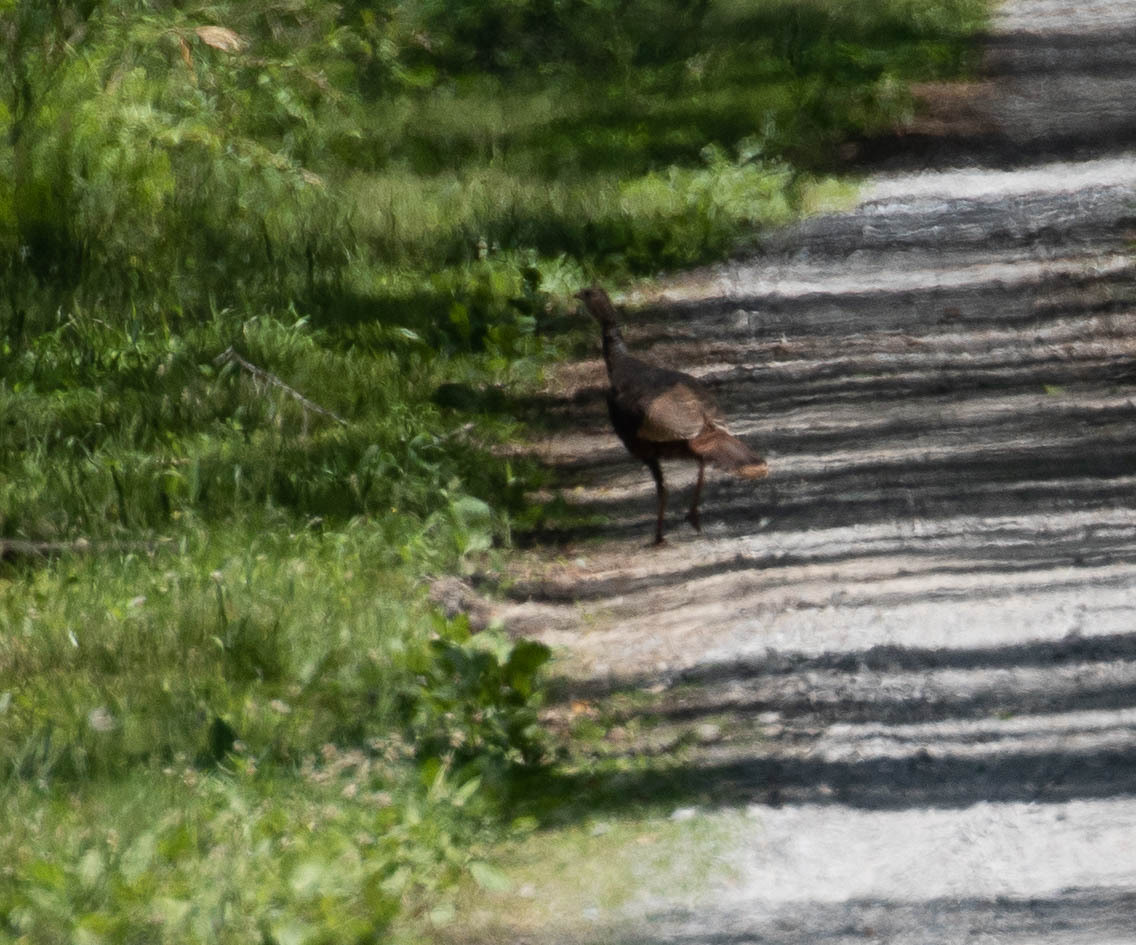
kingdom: Animalia
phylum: Chordata
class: Aves
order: Galliformes
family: Phasianidae
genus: Meleagris
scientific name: Meleagris gallopavo
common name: Wild turkey
